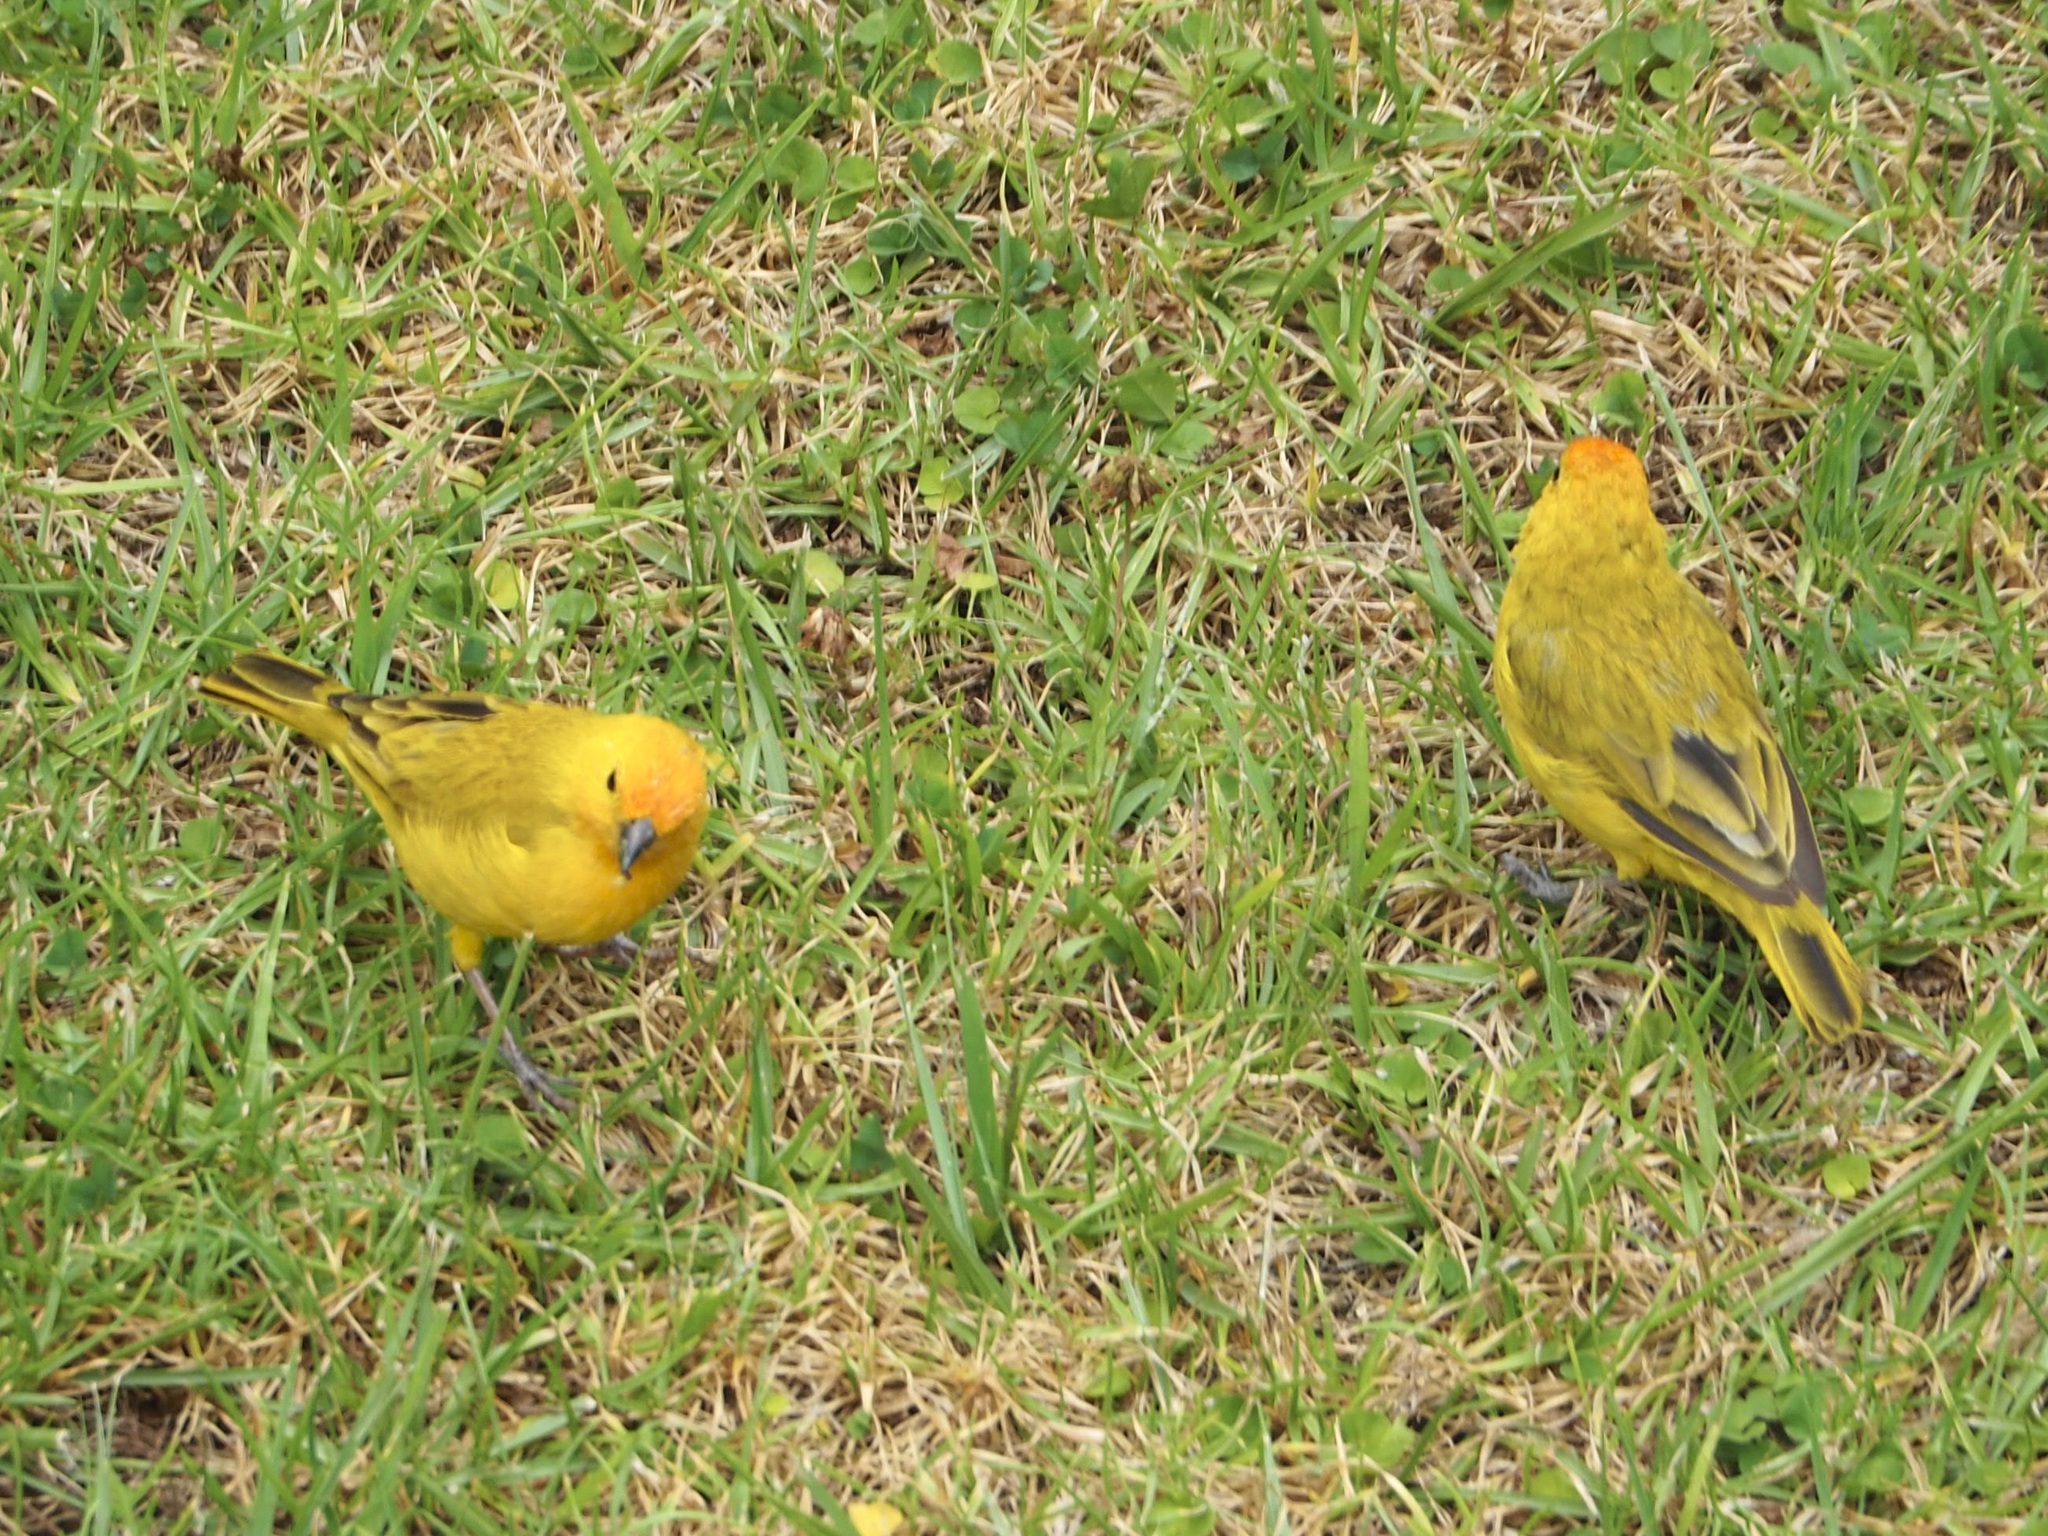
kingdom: Animalia
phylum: Chordata
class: Aves
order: Passeriformes
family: Thraupidae
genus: Sicalis
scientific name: Sicalis flaveola
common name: Saffron finch
